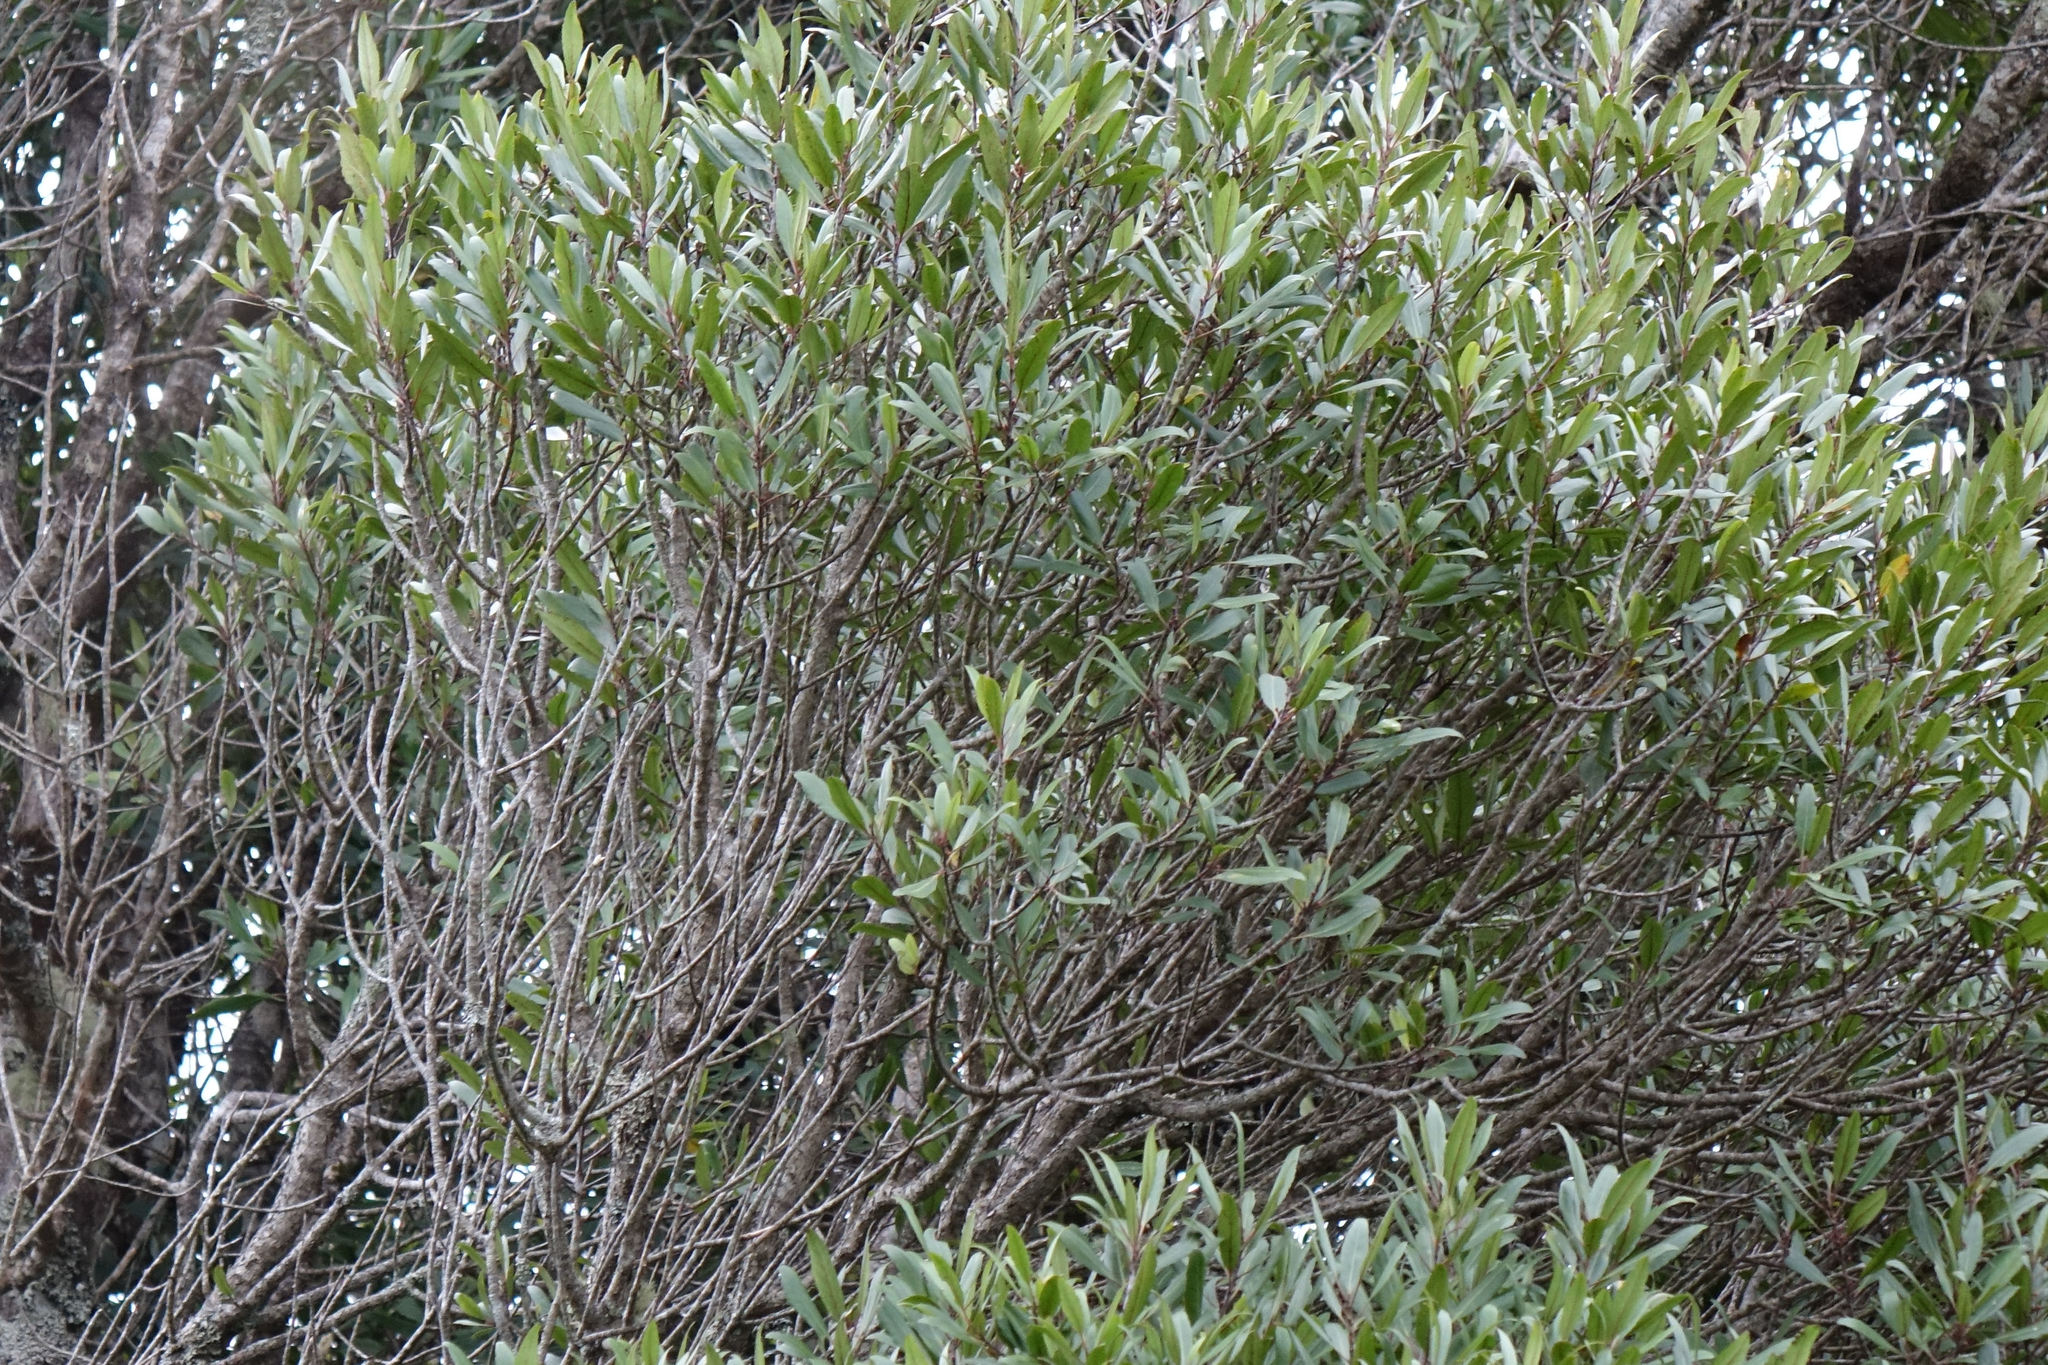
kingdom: Plantae
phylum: Tracheophyta
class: Magnoliopsida
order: Oxalidales
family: Elaeocarpaceae
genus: Elaeocarpus
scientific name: Elaeocarpus hookerianus
